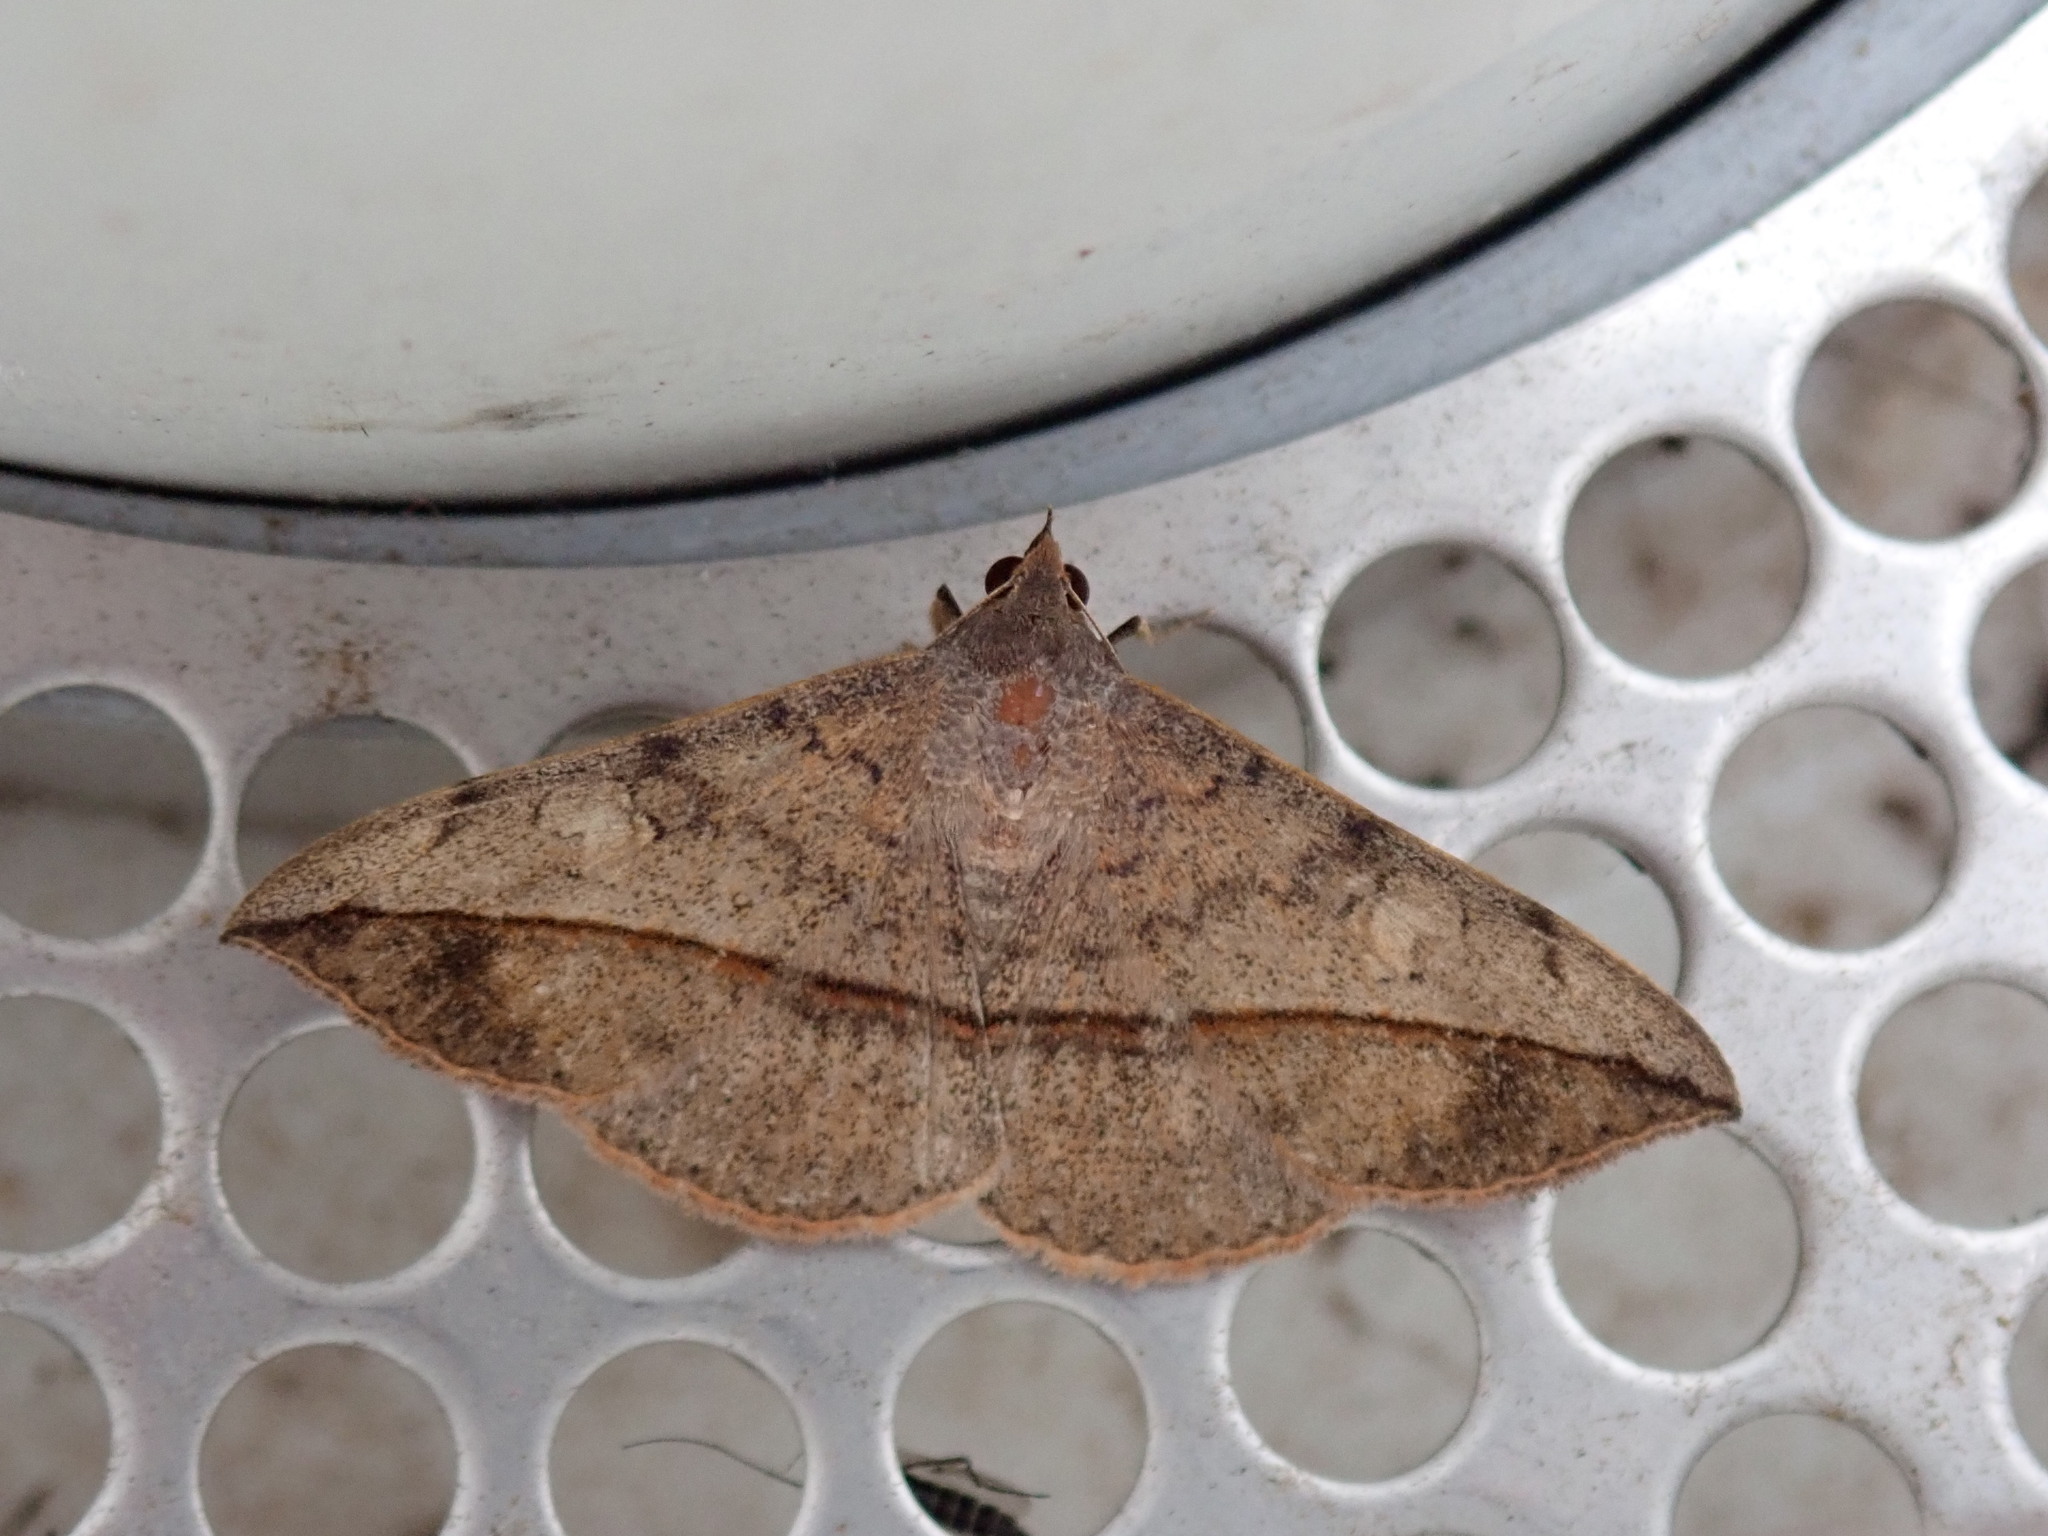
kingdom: Animalia
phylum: Arthropoda
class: Insecta
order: Lepidoptera
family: Erebidae
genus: Anticarsia
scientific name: Anticarsia gemmatalis
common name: Cutworm moth
